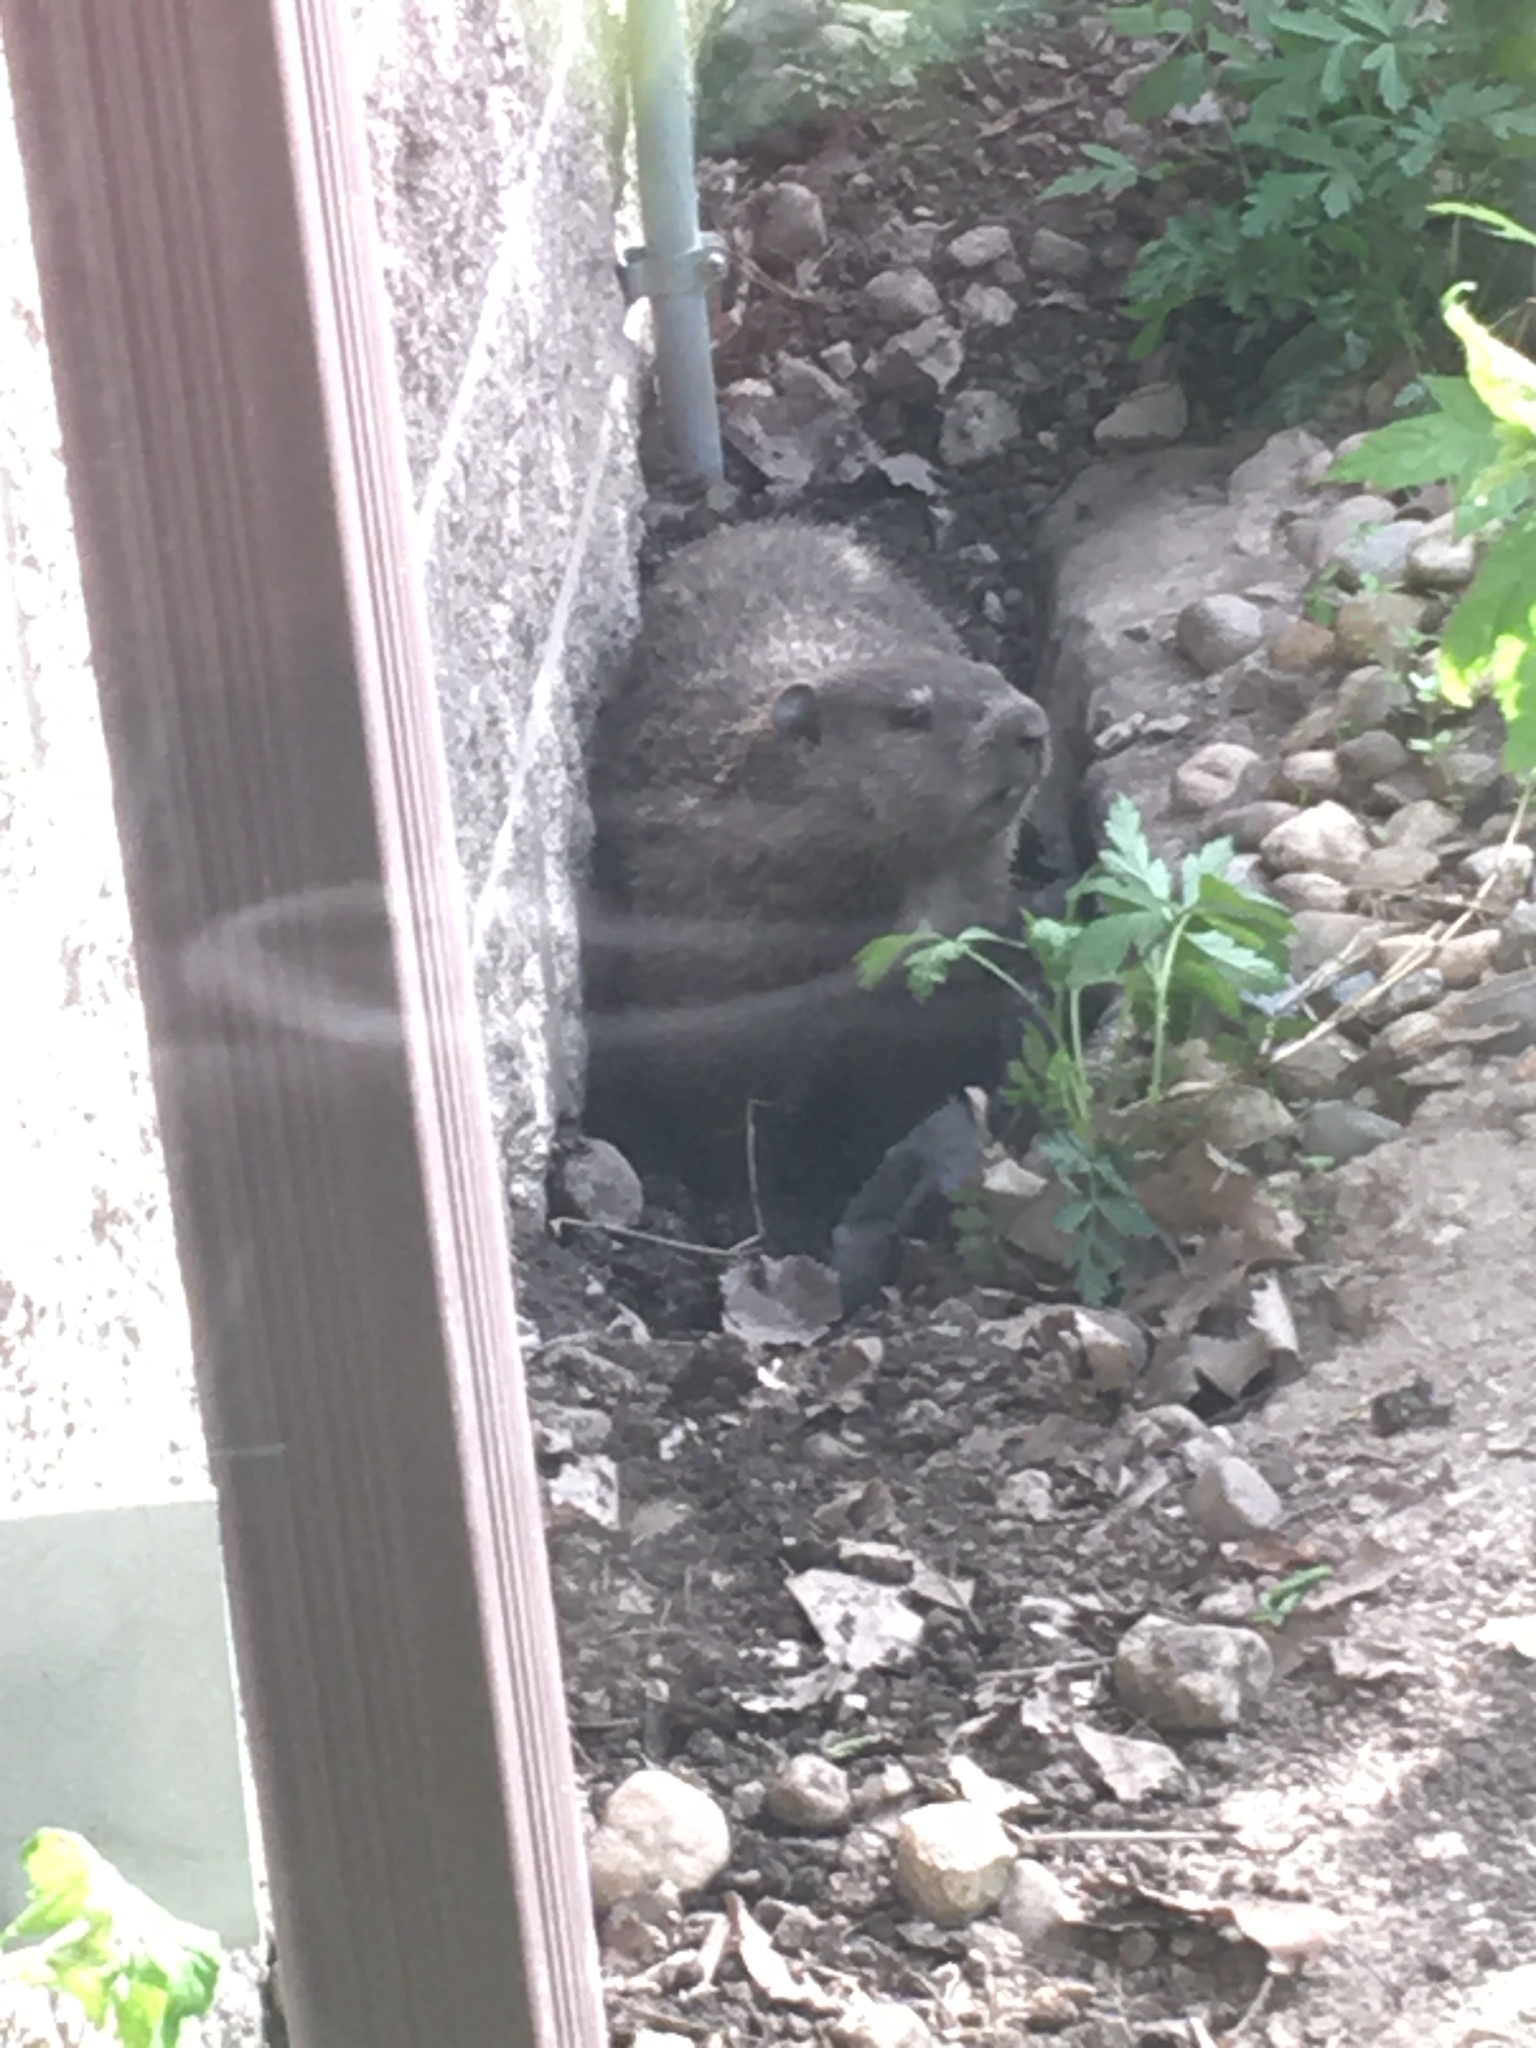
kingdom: Animalia
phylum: Chordata
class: Mammalia
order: Rodentia
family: Sciuridae
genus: Marmota
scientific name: Marmota monax
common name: Groundhog
